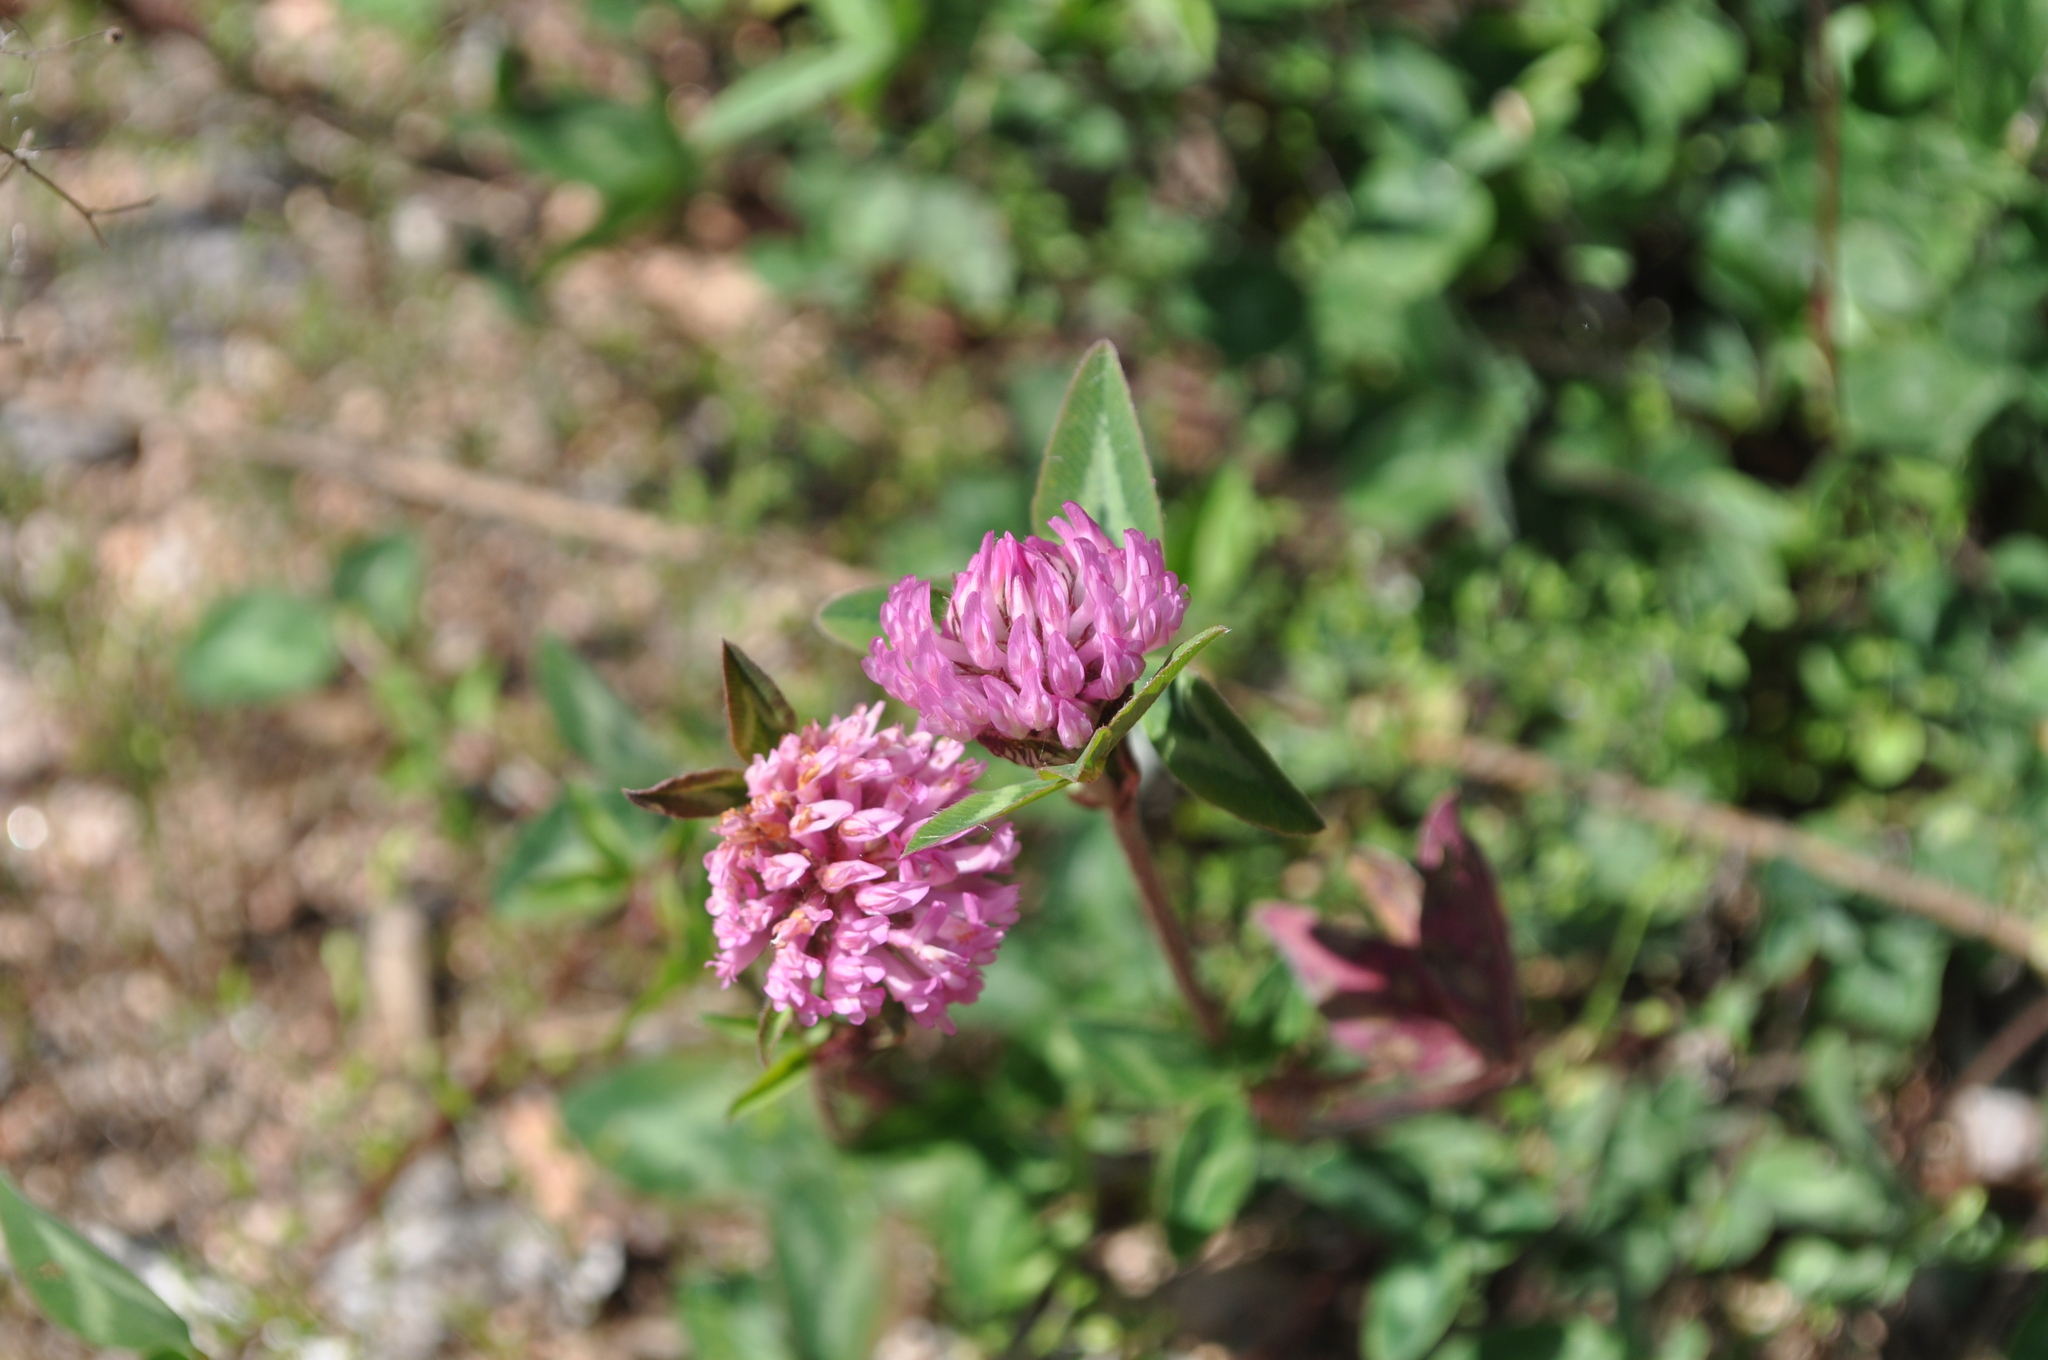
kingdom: Plantae
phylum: Tracheophyta
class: Magnoliopsida
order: Fabales
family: Fabaceae
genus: Trifolium
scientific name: Trifolium pratense
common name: Red clover
